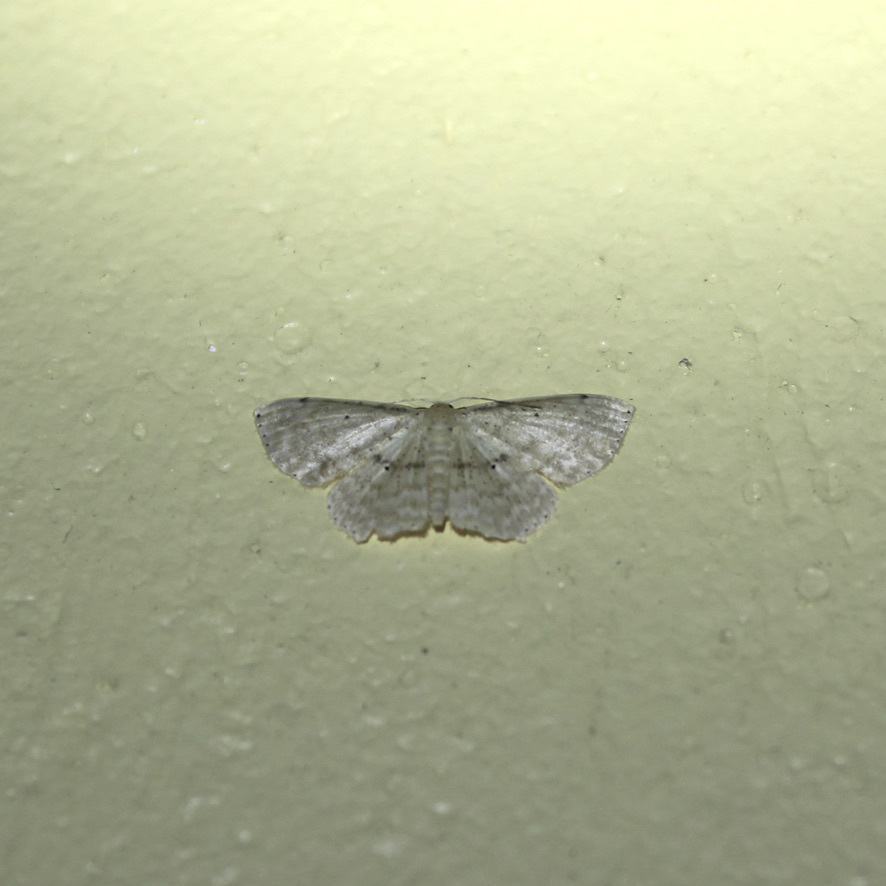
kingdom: Animalia
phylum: Arthropoda
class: Insecta
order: Lepidoptera
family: Geometridae
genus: Scopula
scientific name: Scopula subquadrata
